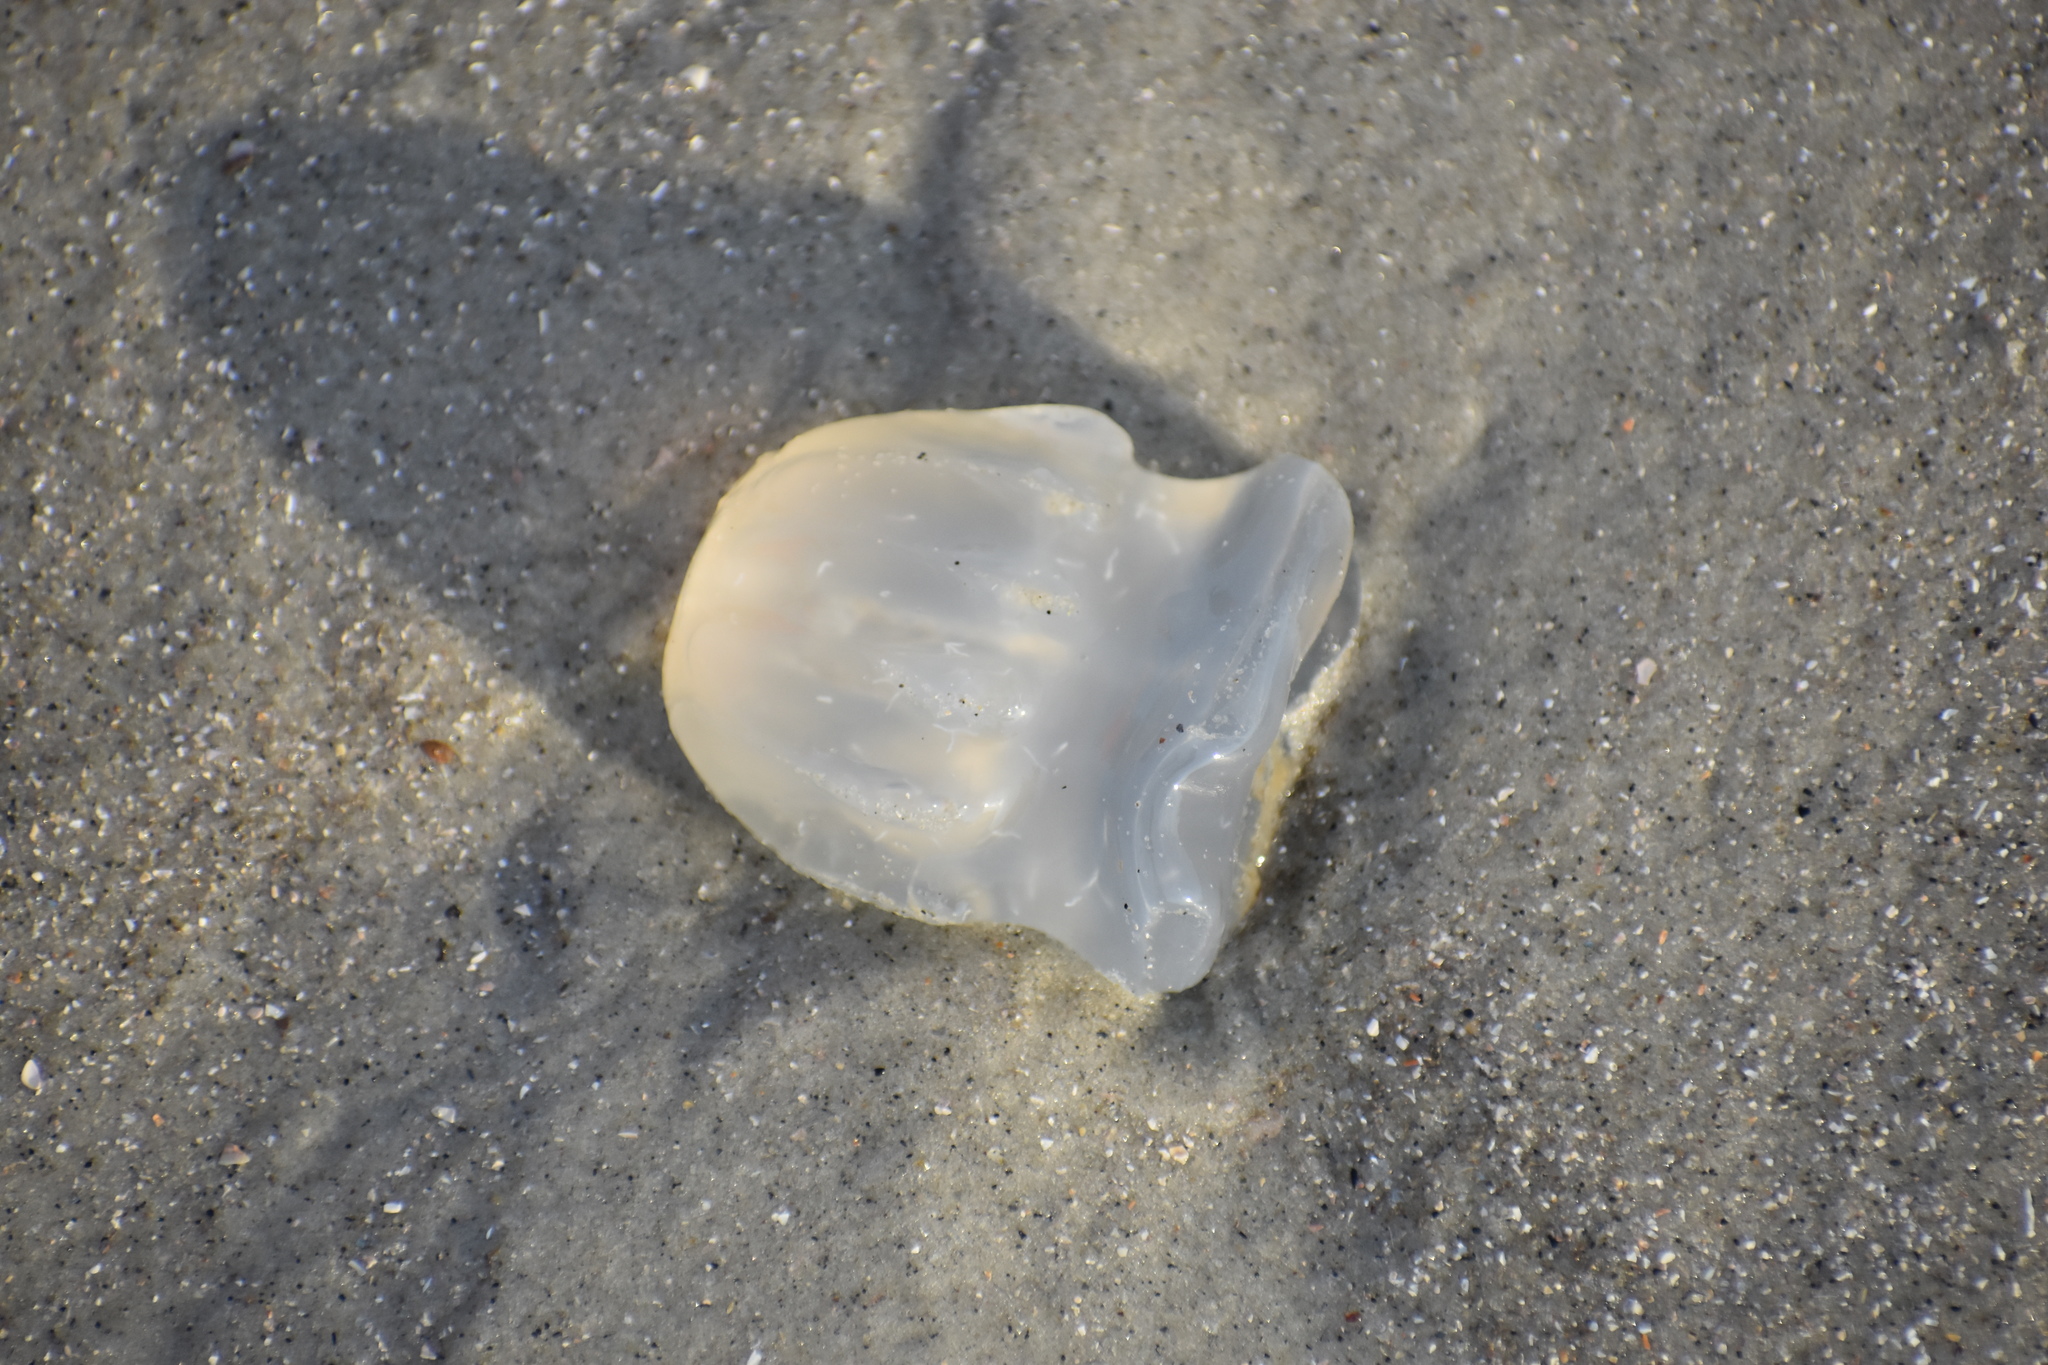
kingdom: Animalia
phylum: Cnidaria
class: Scyphozoa
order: Rhizostomeae
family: Stomolophidae
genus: Stomolophus
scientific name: Stomolophus meleagris
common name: Cabbagehead
